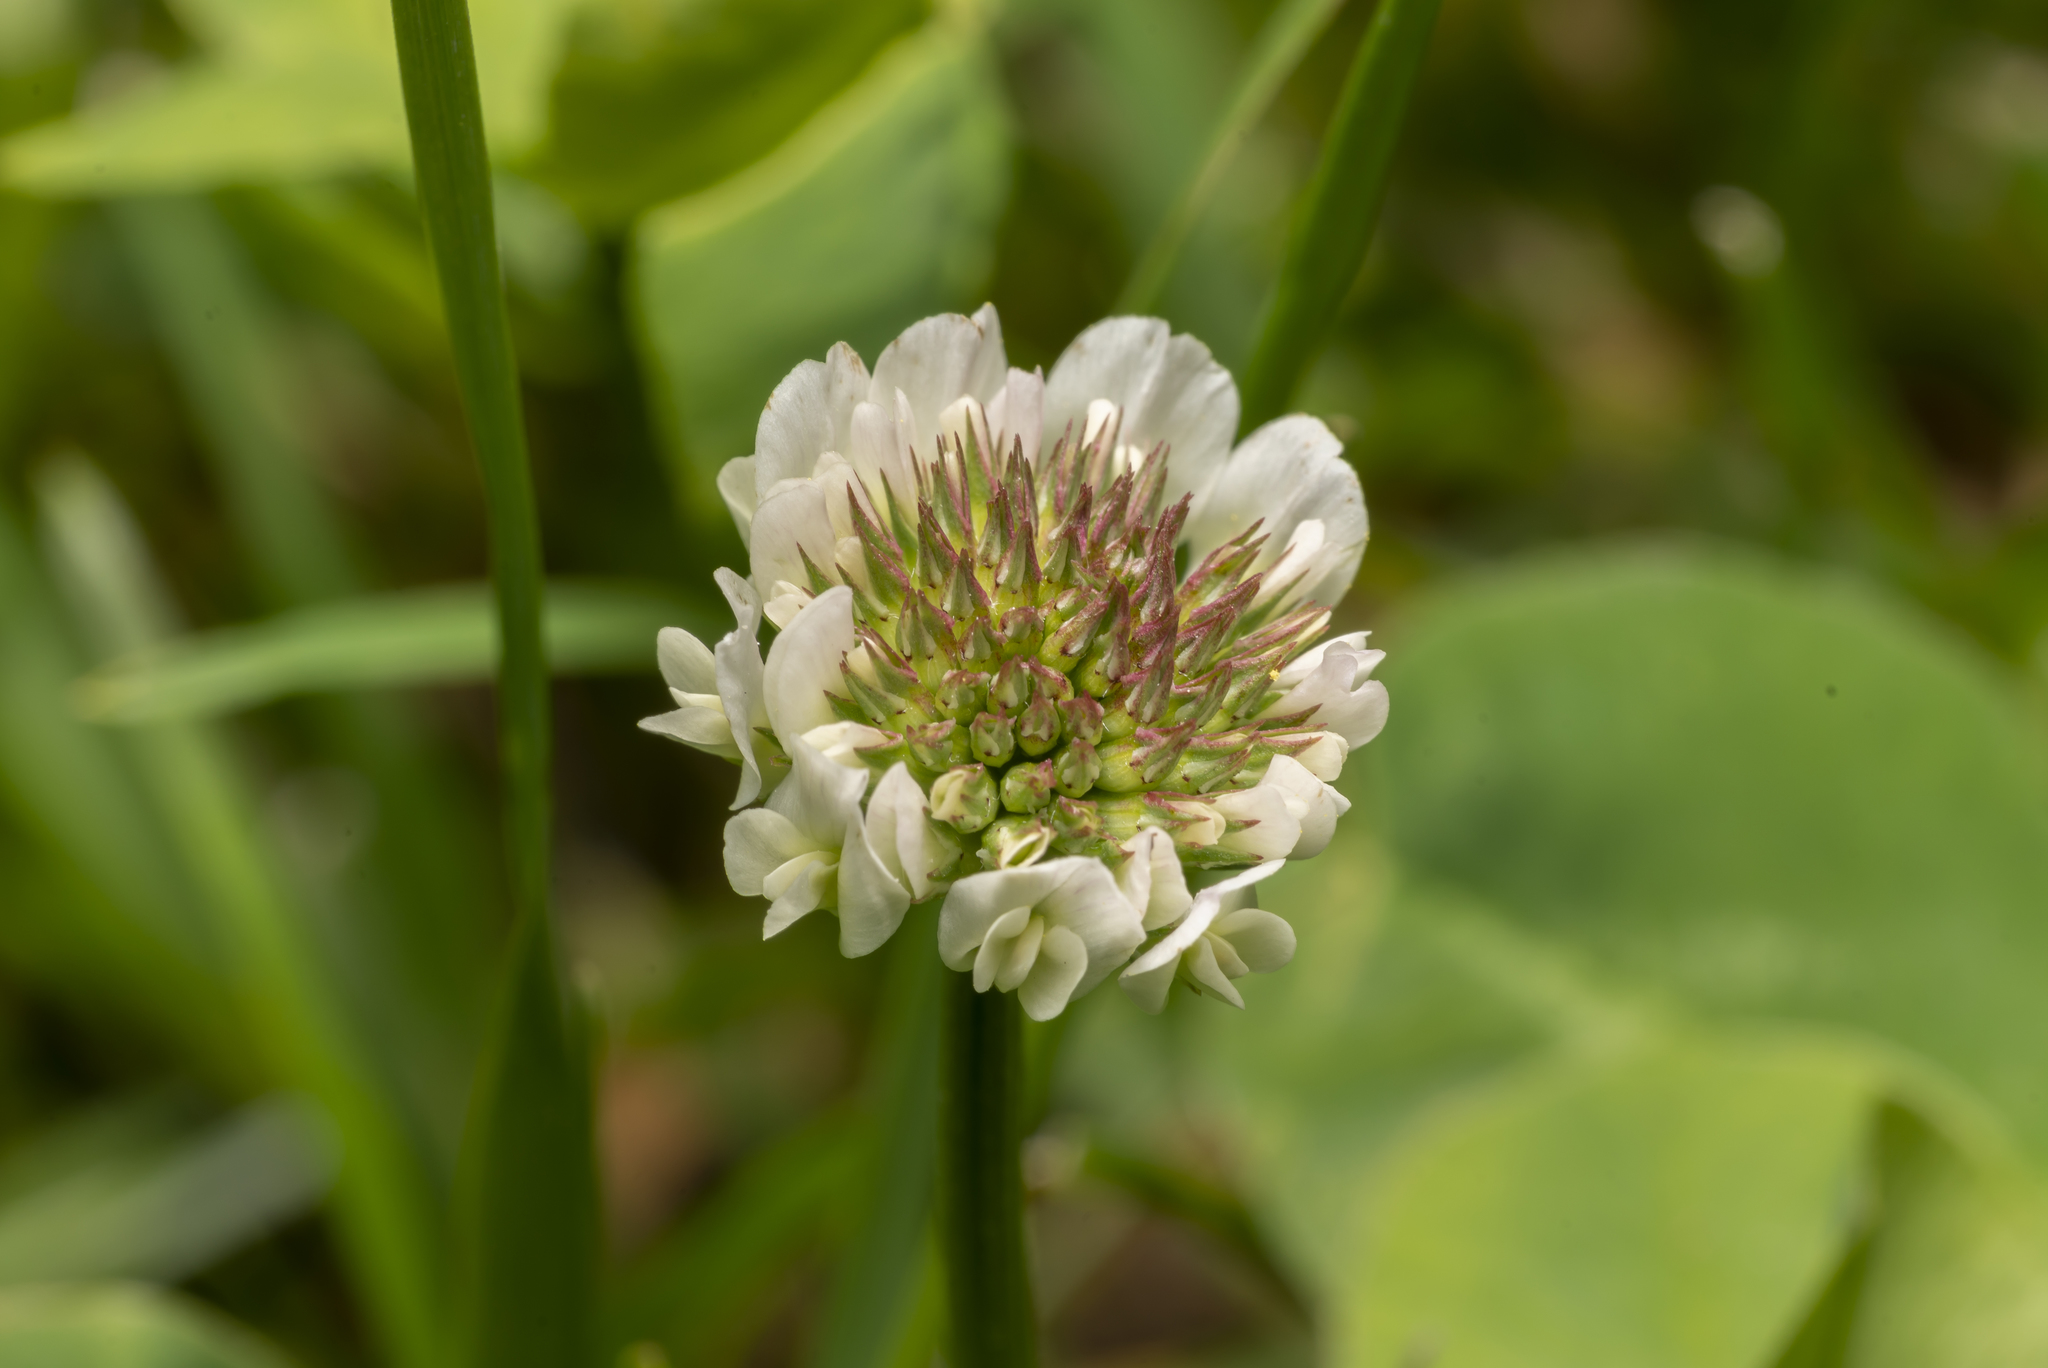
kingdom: Plantae
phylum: Tracheophyta
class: Magnoliopsida
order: Fabales
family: Fabaceae
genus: Trifolium
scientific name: Trifolium repens
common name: White clover
